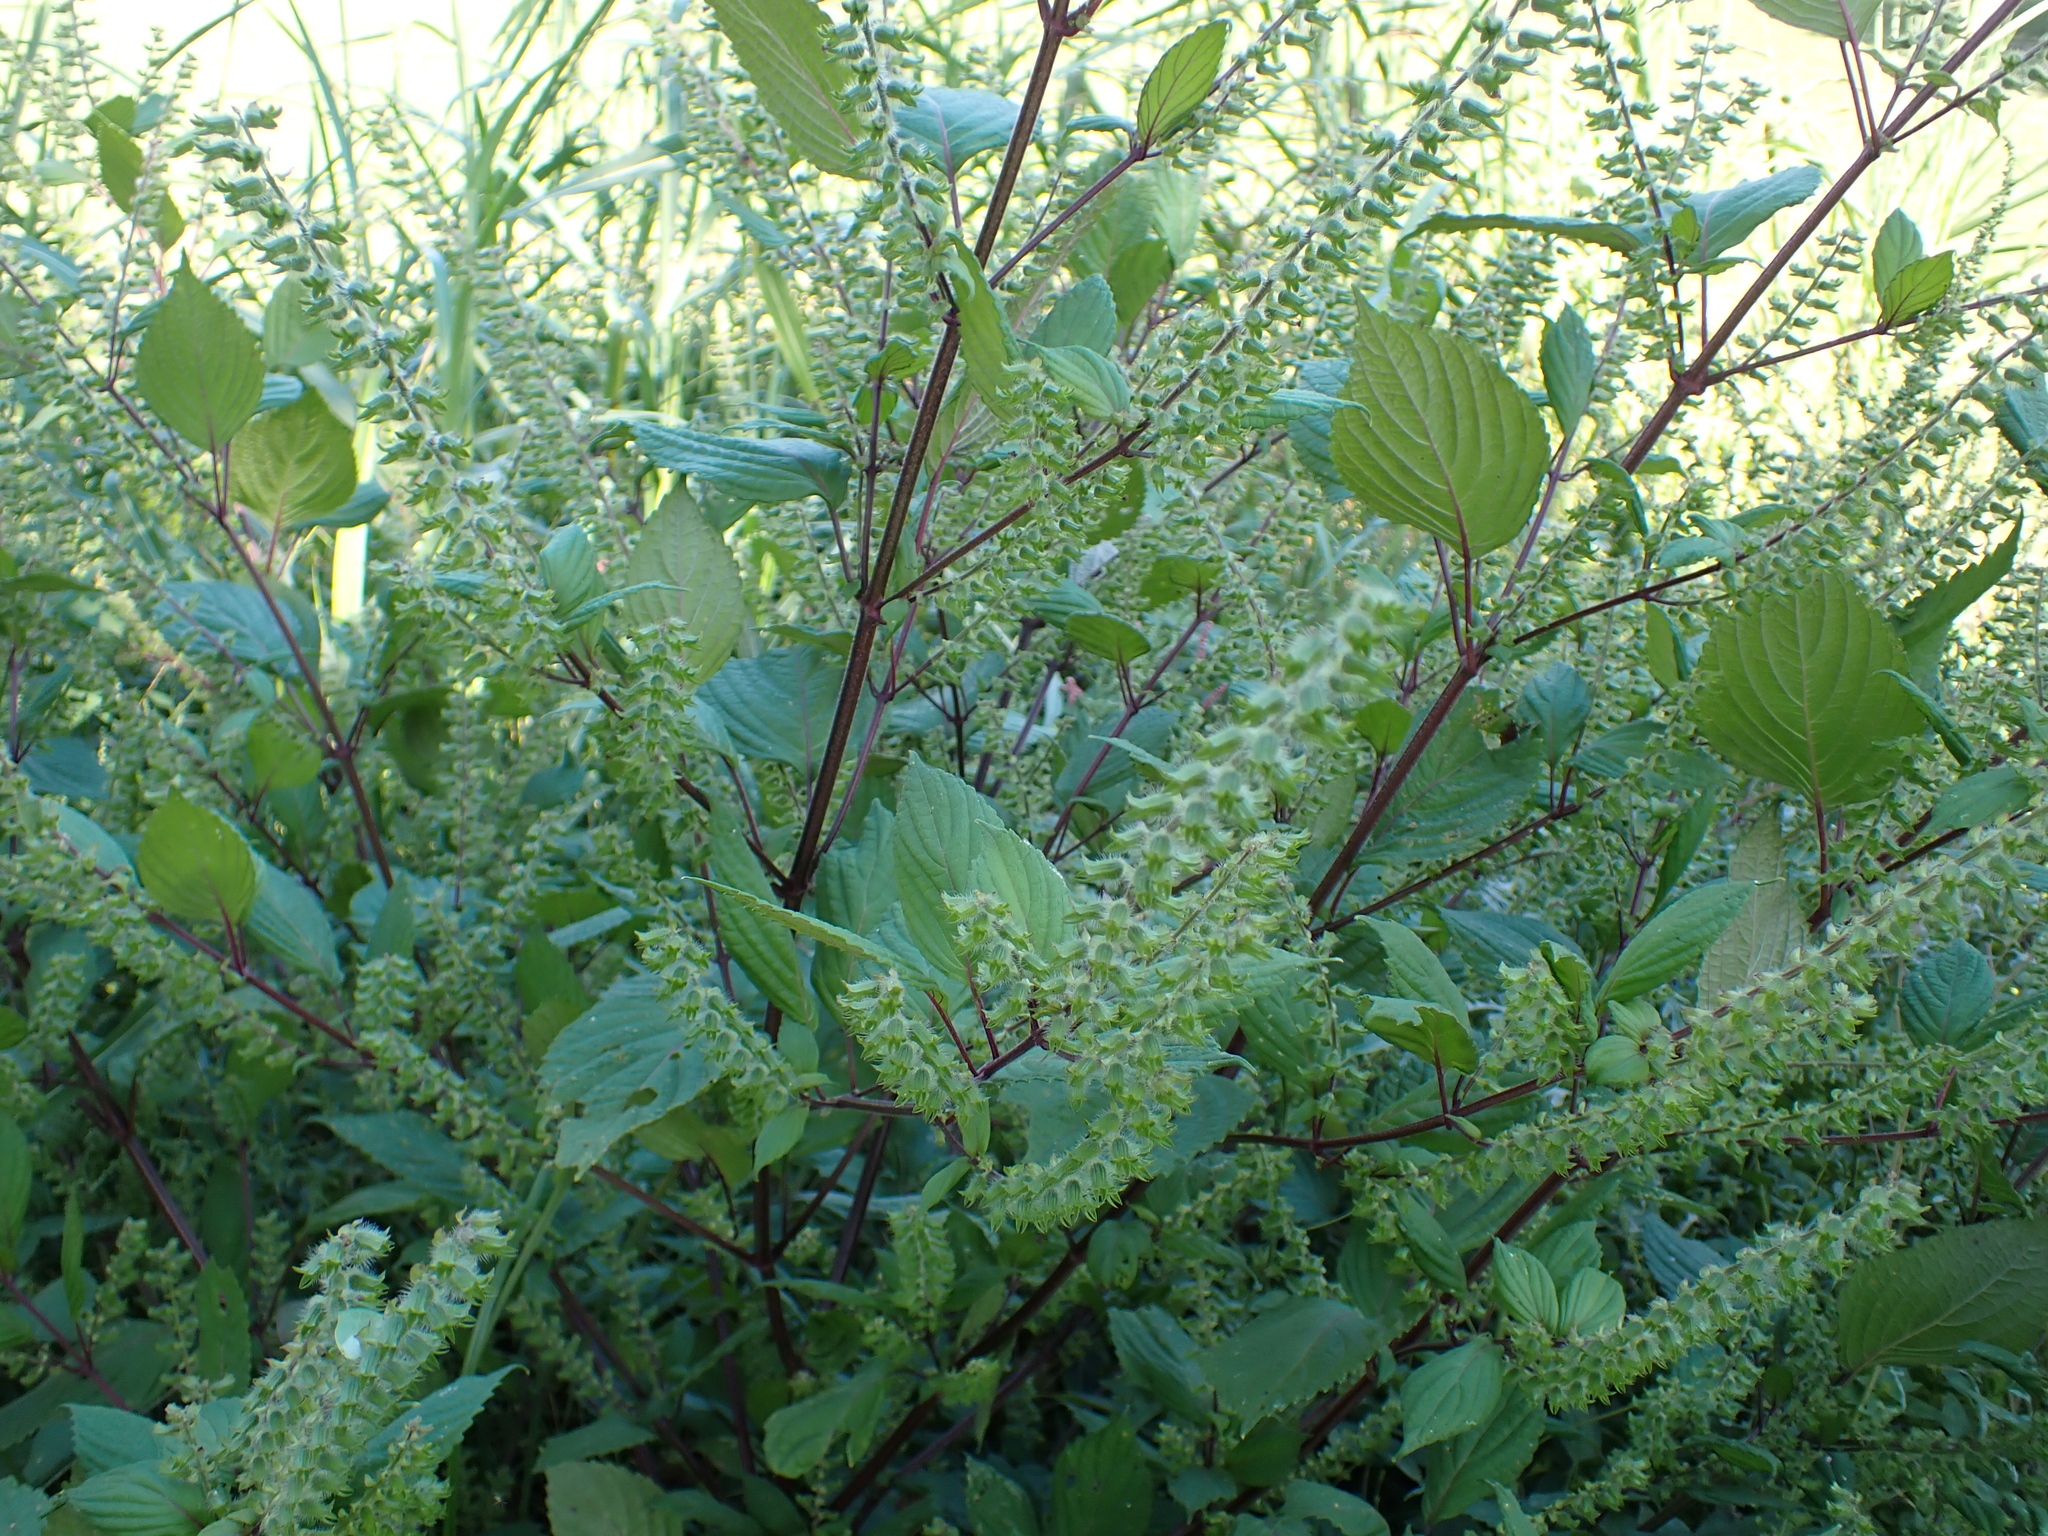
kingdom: Plantae
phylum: Tracheophyta
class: Magnoliopsida
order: Lamiales
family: Lamiaceae
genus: Perilla
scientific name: Perilla frutescens
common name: Perilla
